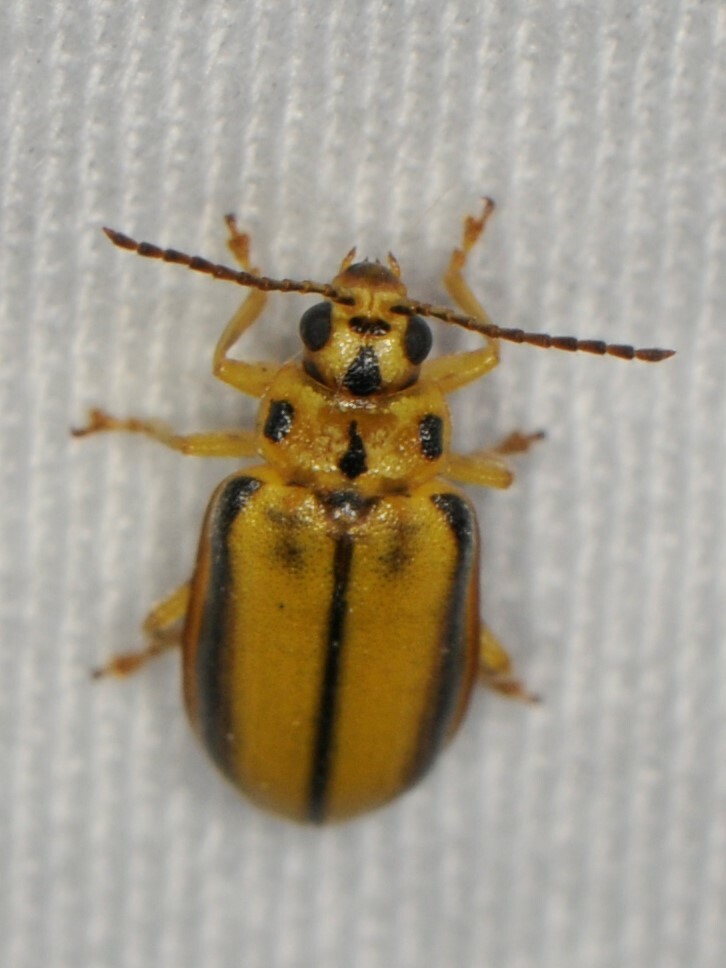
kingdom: Animalia
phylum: Arthropoda
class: Insecta
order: Coleoptera
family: Chrysomelidae
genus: Xanthogaleruca
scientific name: Xanthogaleruca luteola
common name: Elm leaf beetle
